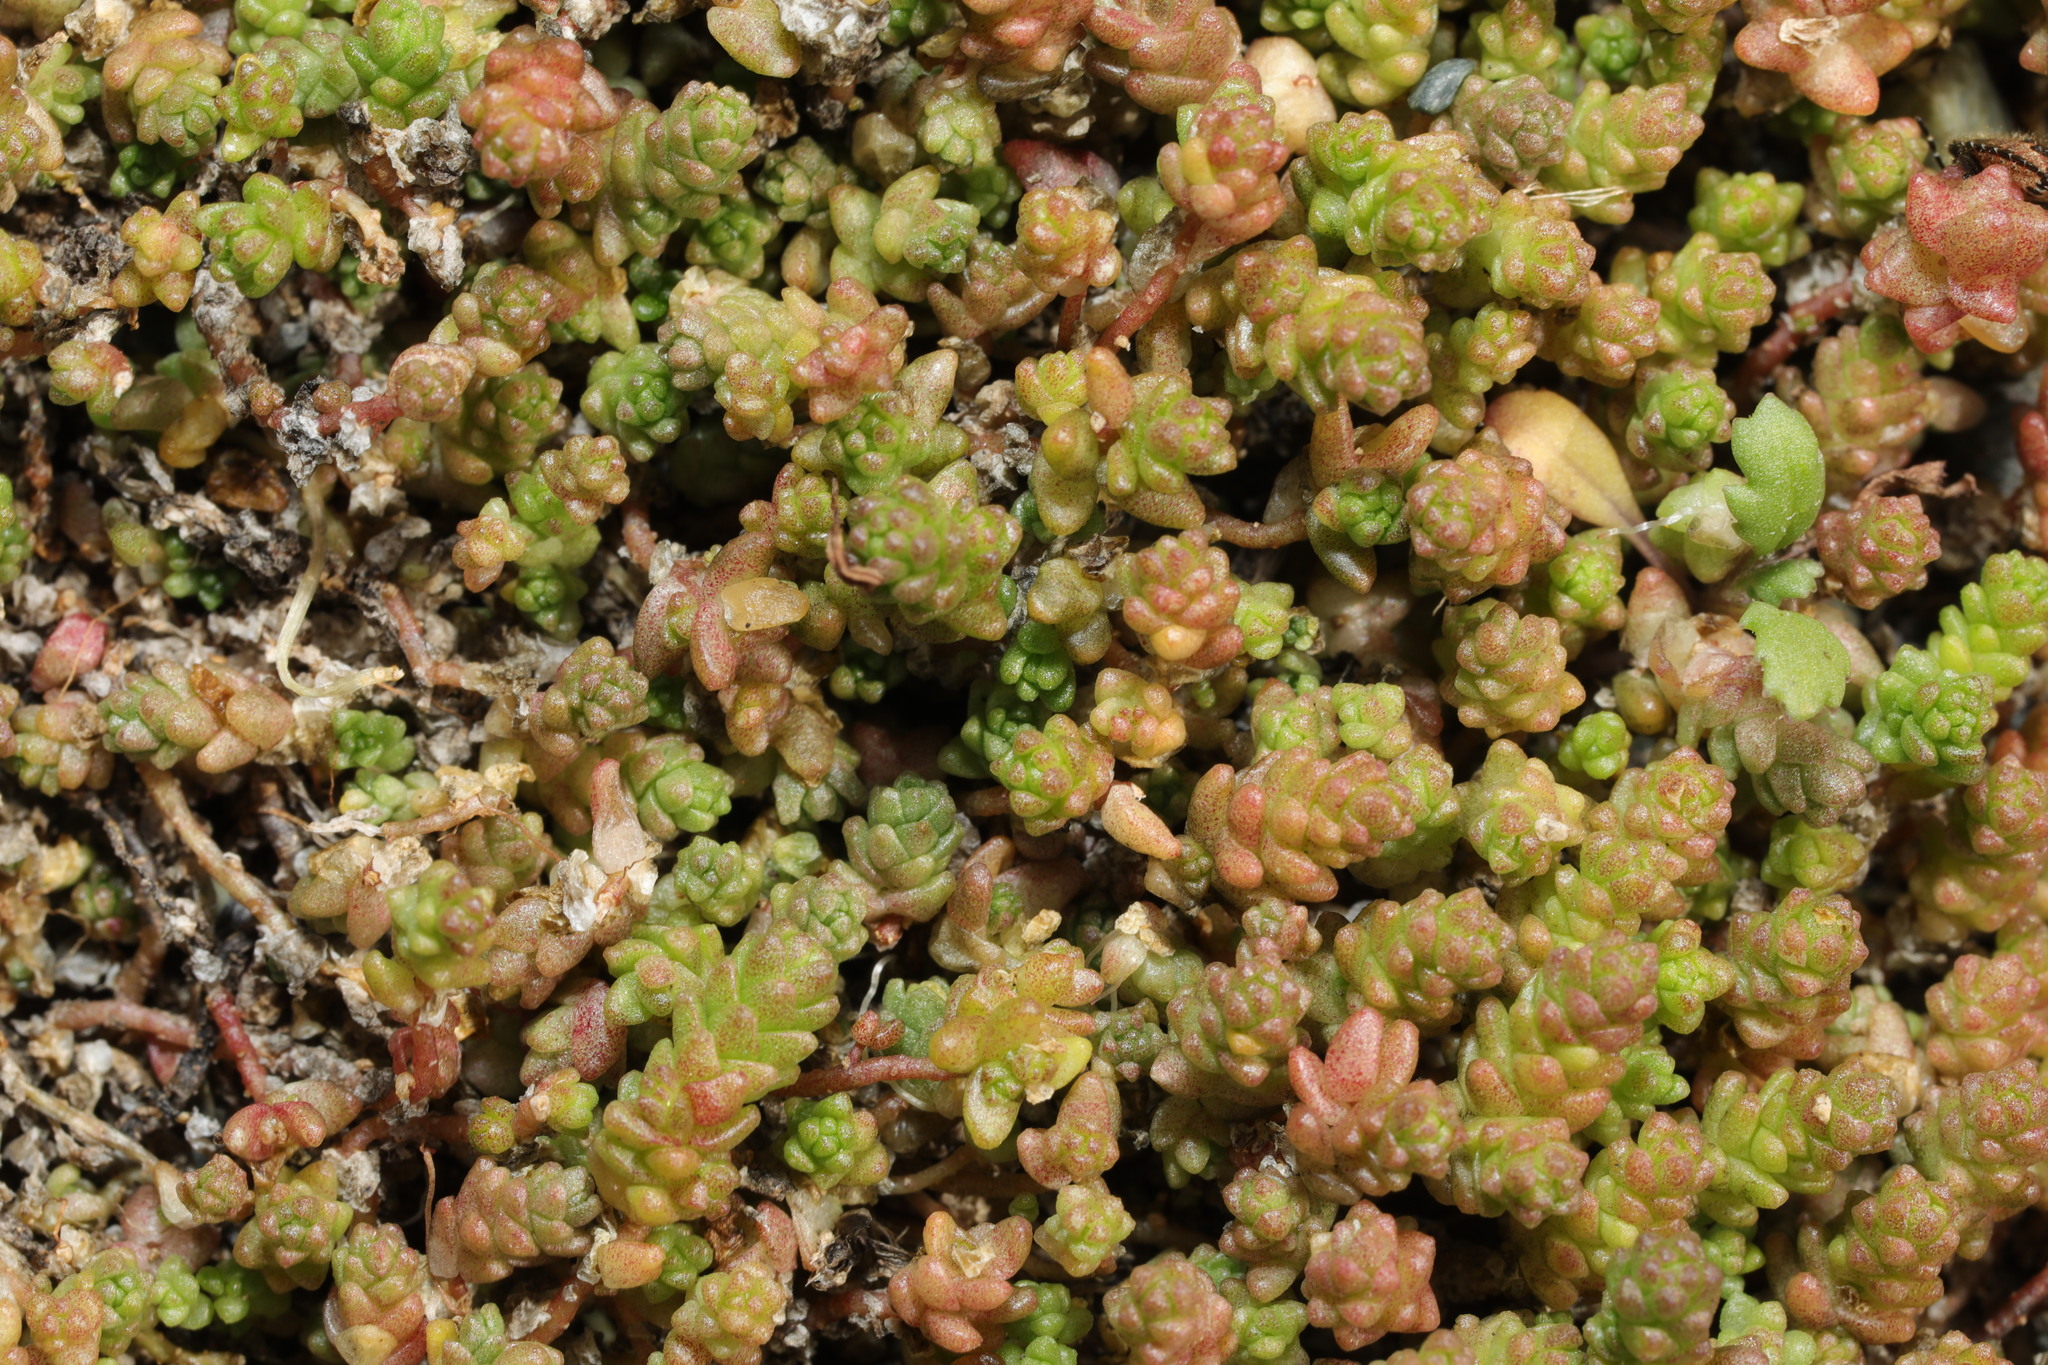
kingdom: Plantae
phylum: Tracheophyta
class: Magnoliopsida
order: Saxifragales
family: Crassulaceae
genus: Sedum
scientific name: Sedum anglicum
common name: English stonecrop
